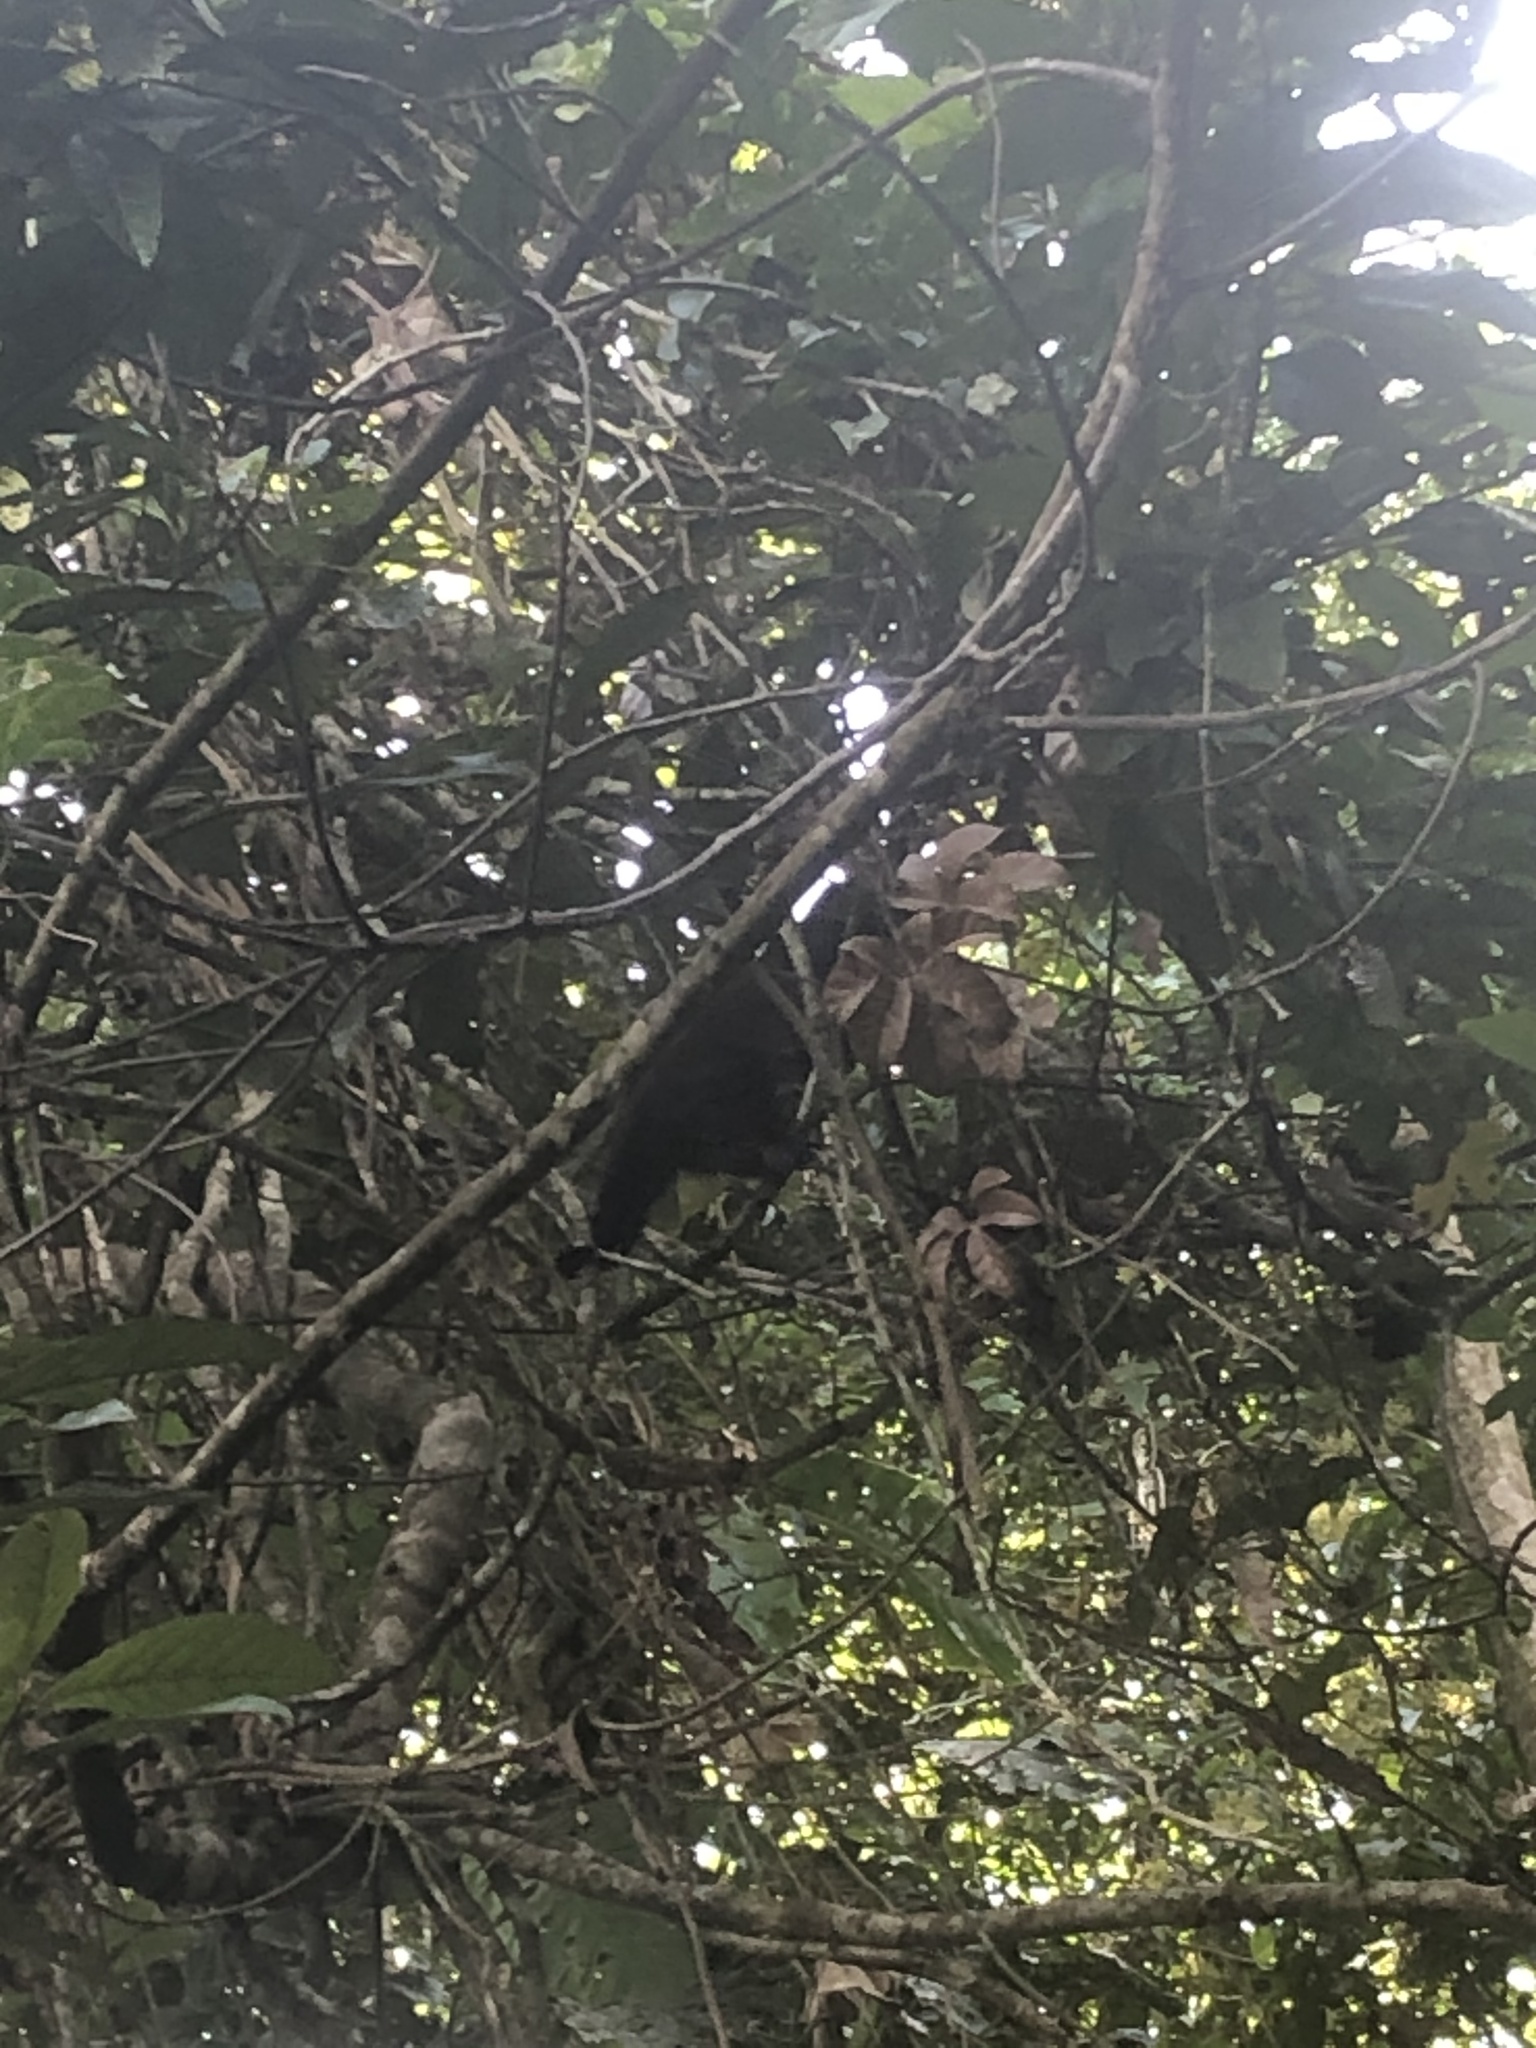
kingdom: Animalia
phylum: Chordata
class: Mammalia
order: Primates
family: Cebidae
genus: Sapajus
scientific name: Sapajus apella
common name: Tufted capuchin
